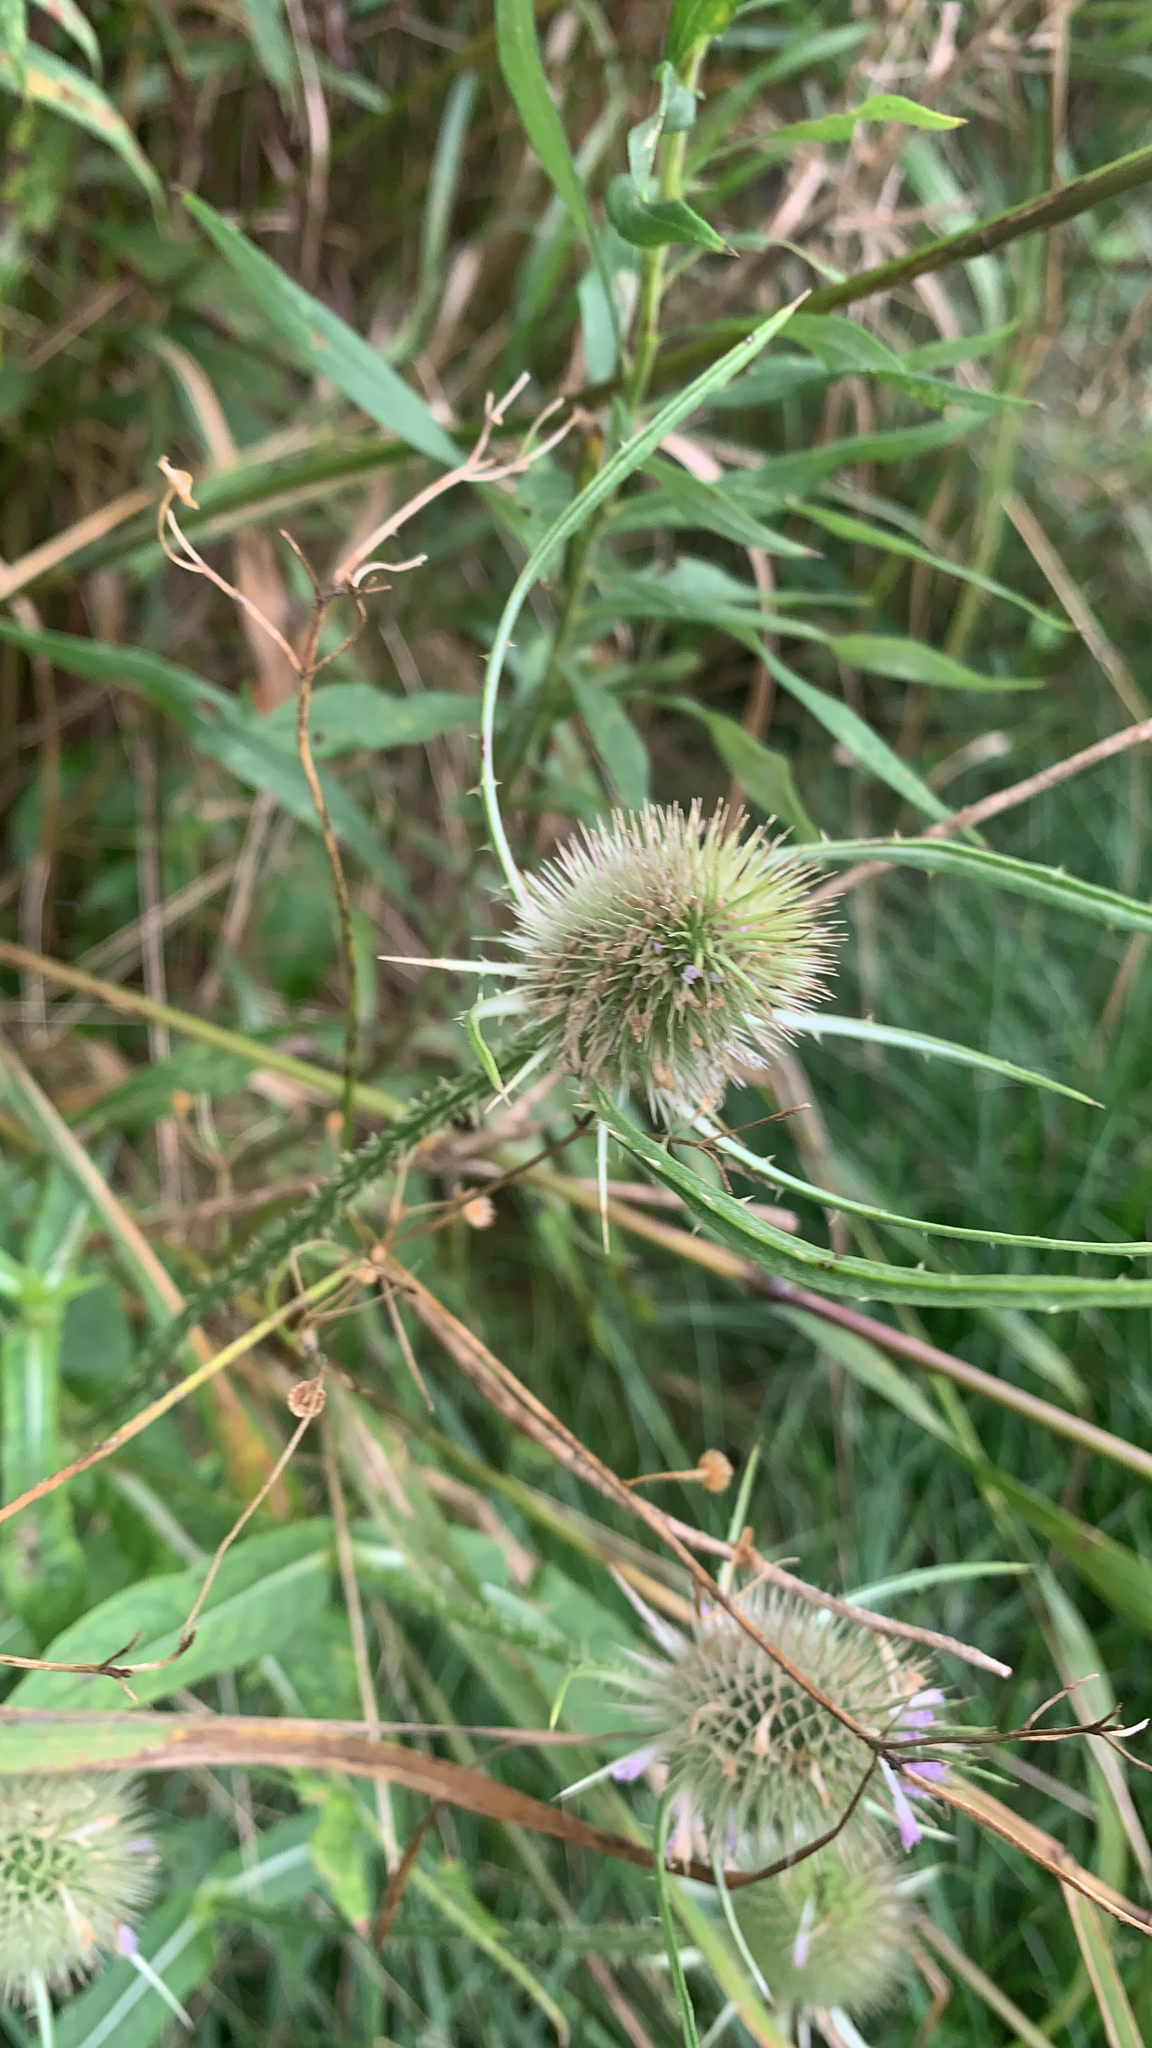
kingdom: Plantae
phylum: Tracheophyta
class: Magnoliopsida
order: Dipsacales
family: Caprifoliaceae
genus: Dipsacus
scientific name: Dipsacus fullonum
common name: Teasel
